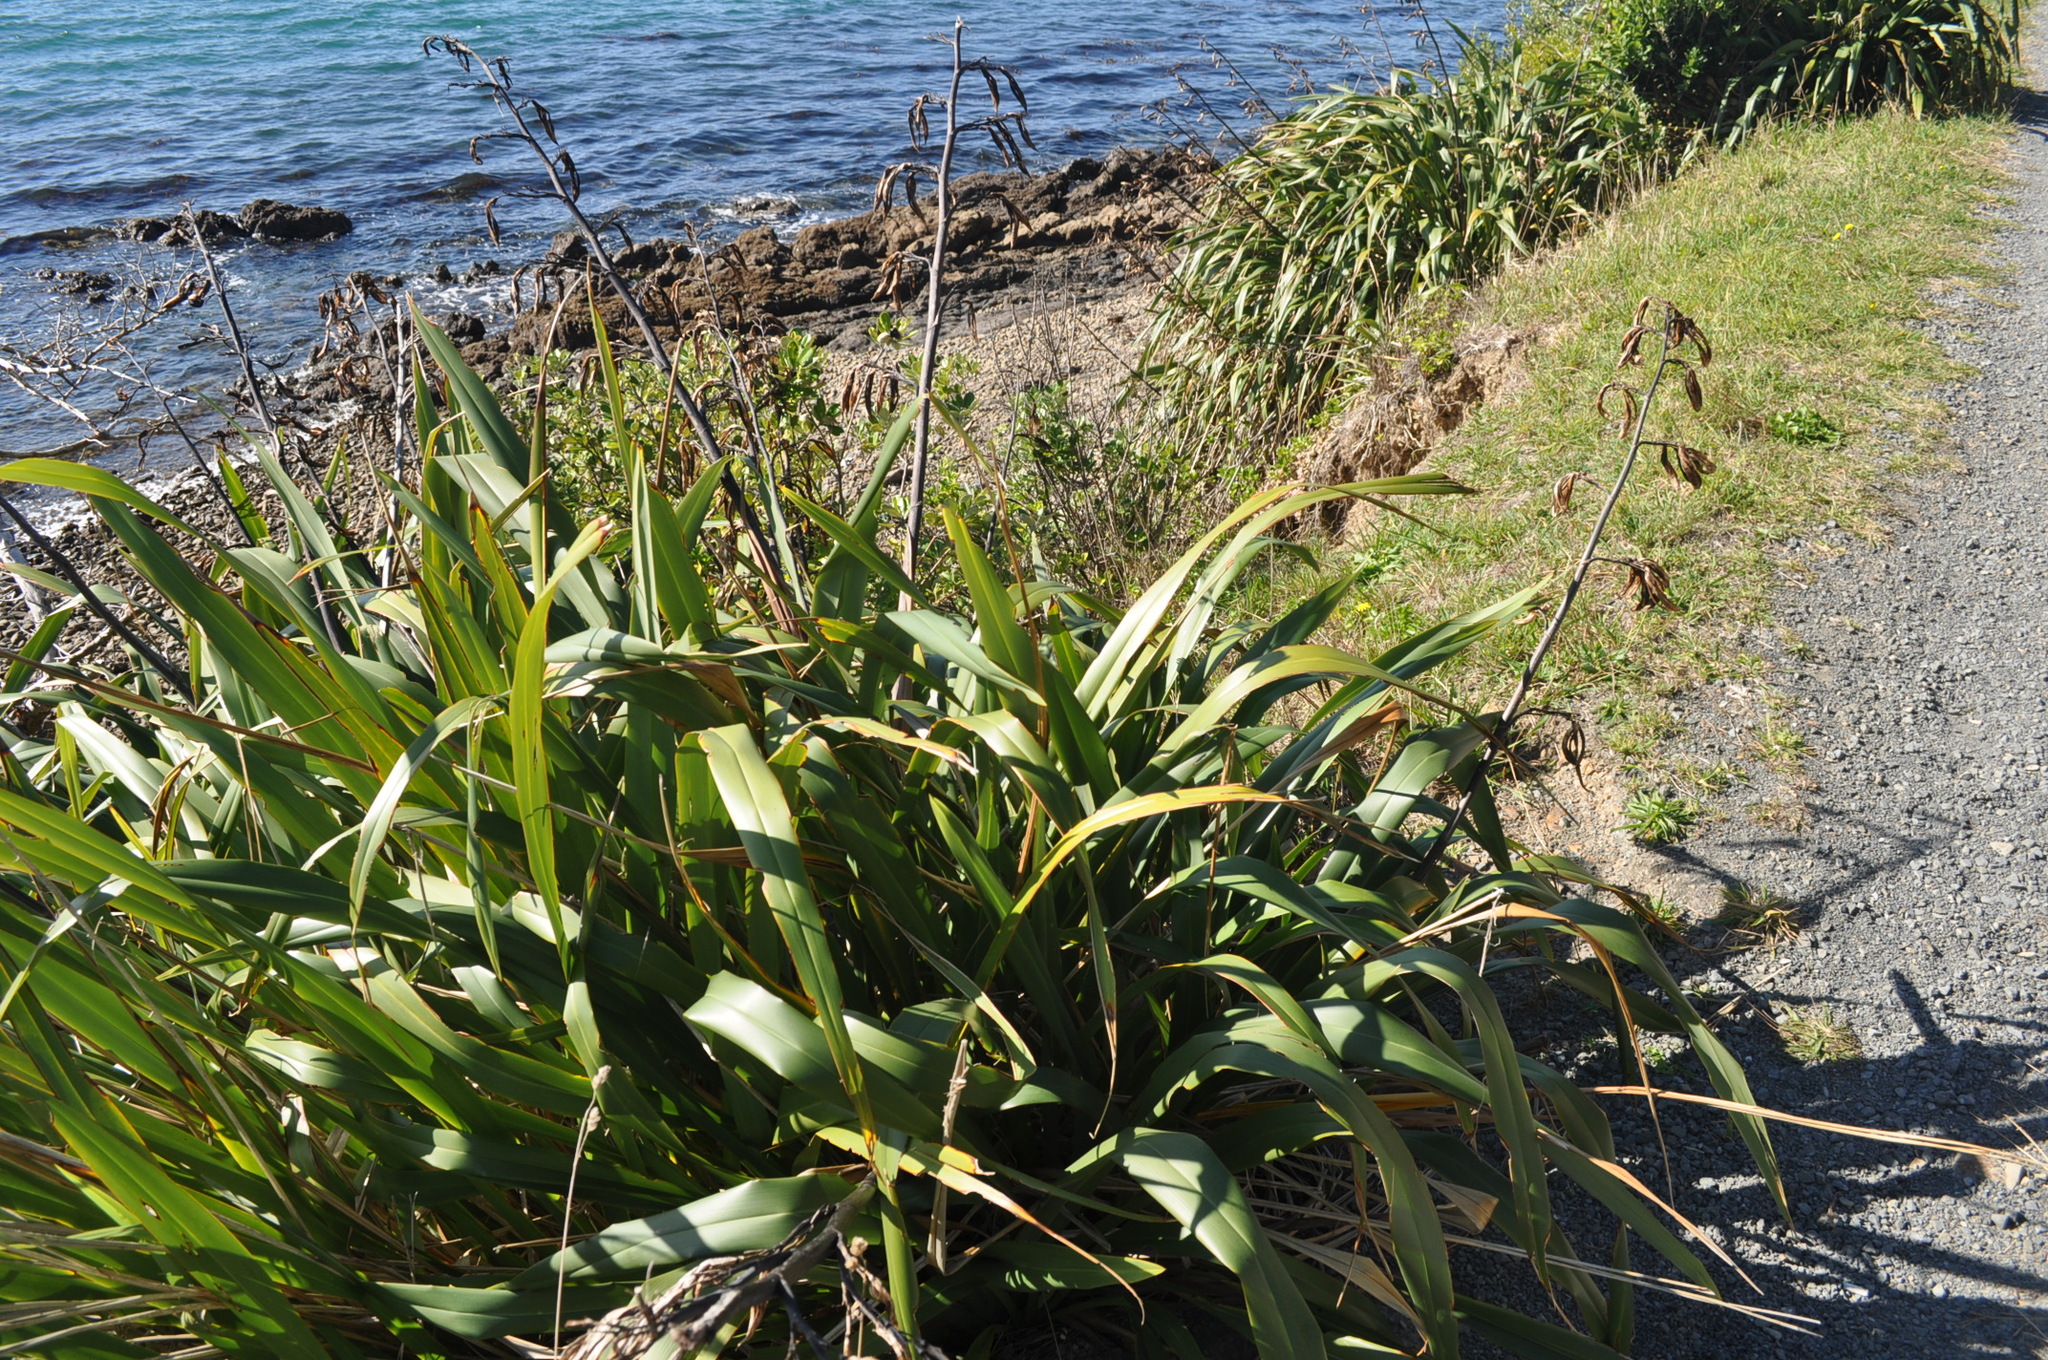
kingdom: Plantae
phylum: Tracheophyta
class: Liliopsida
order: Asparagales
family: Asphodelaceae
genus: Phormium
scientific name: Phormium colensoi
